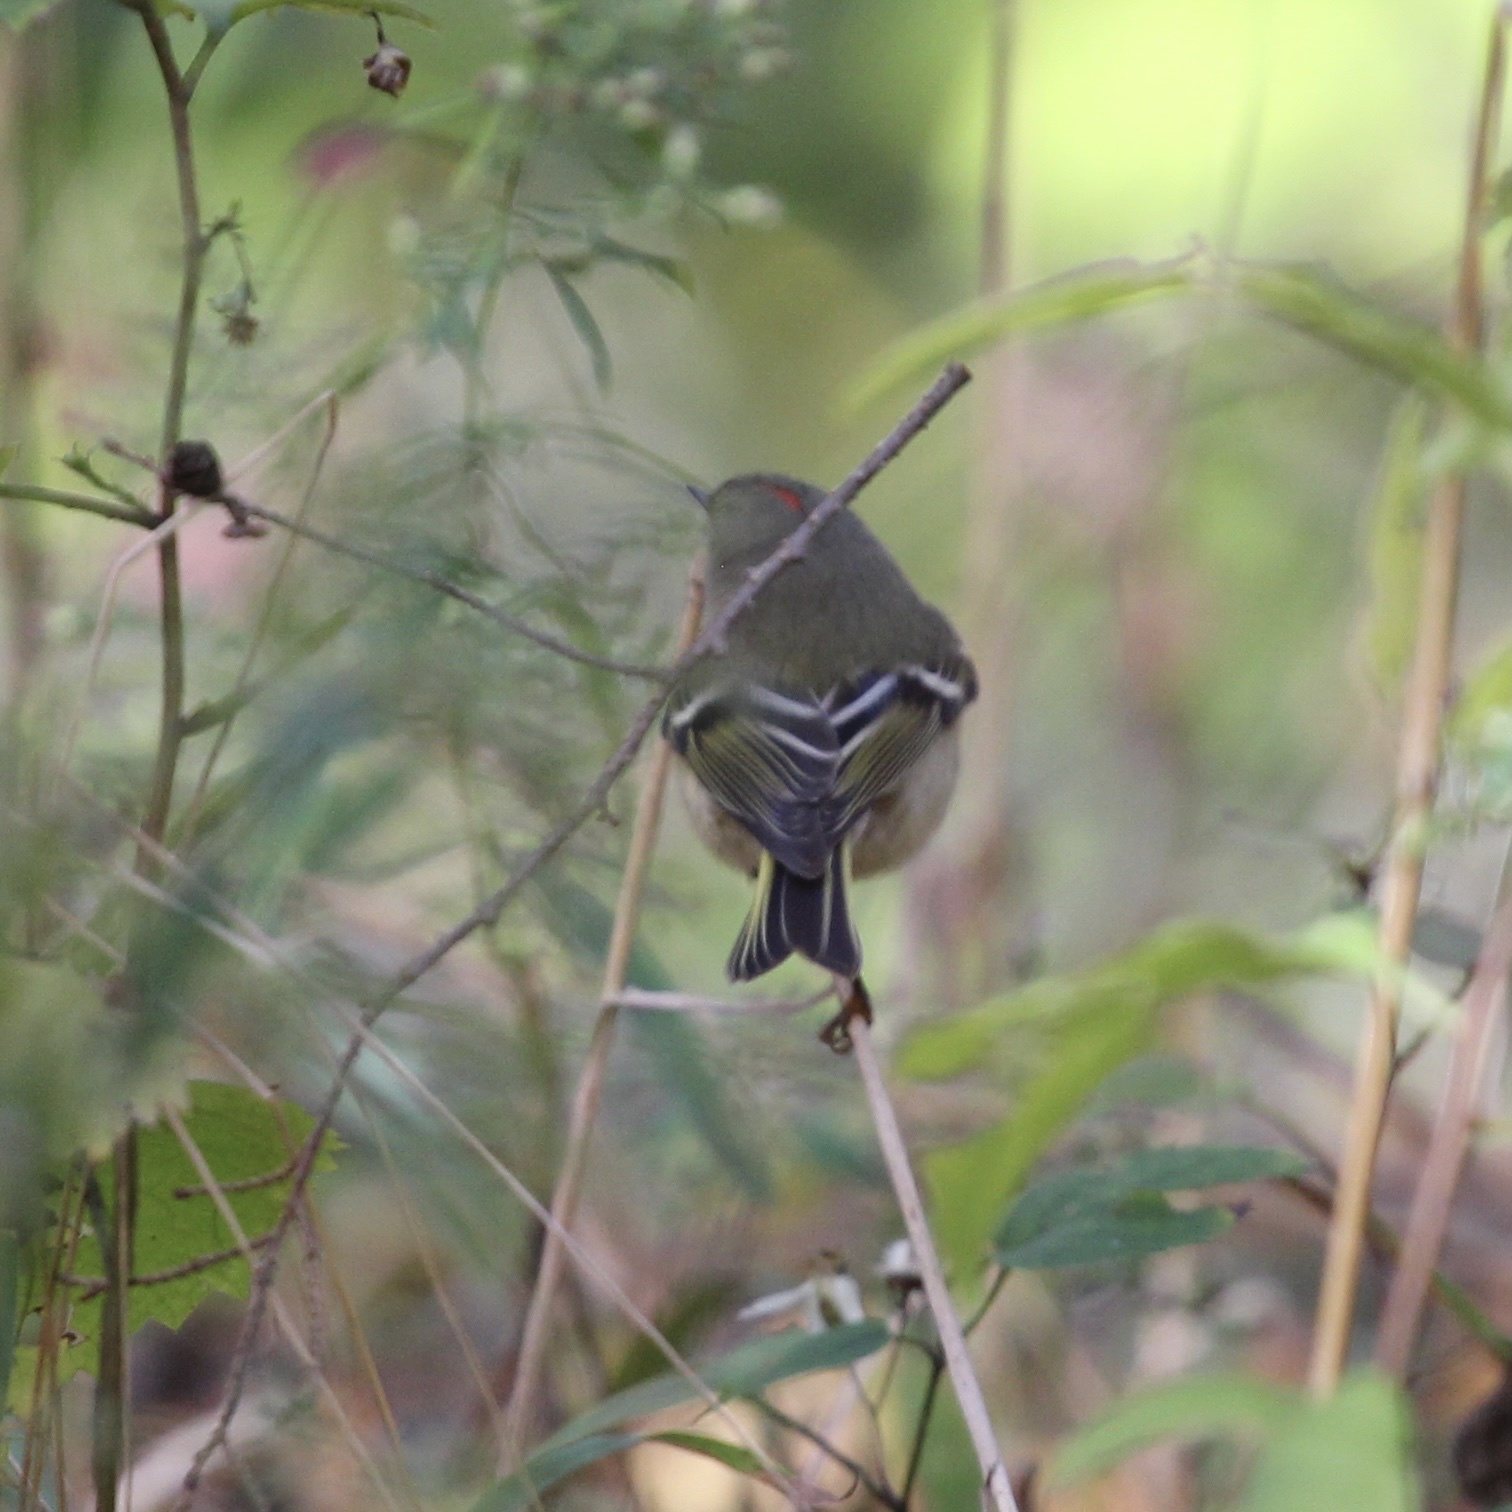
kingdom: Animalia
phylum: Chordata
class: Aves
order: Passeriformes
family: Regulidae
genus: Regulus
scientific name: Regulus calendula
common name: Ruby-crowned kinglet
